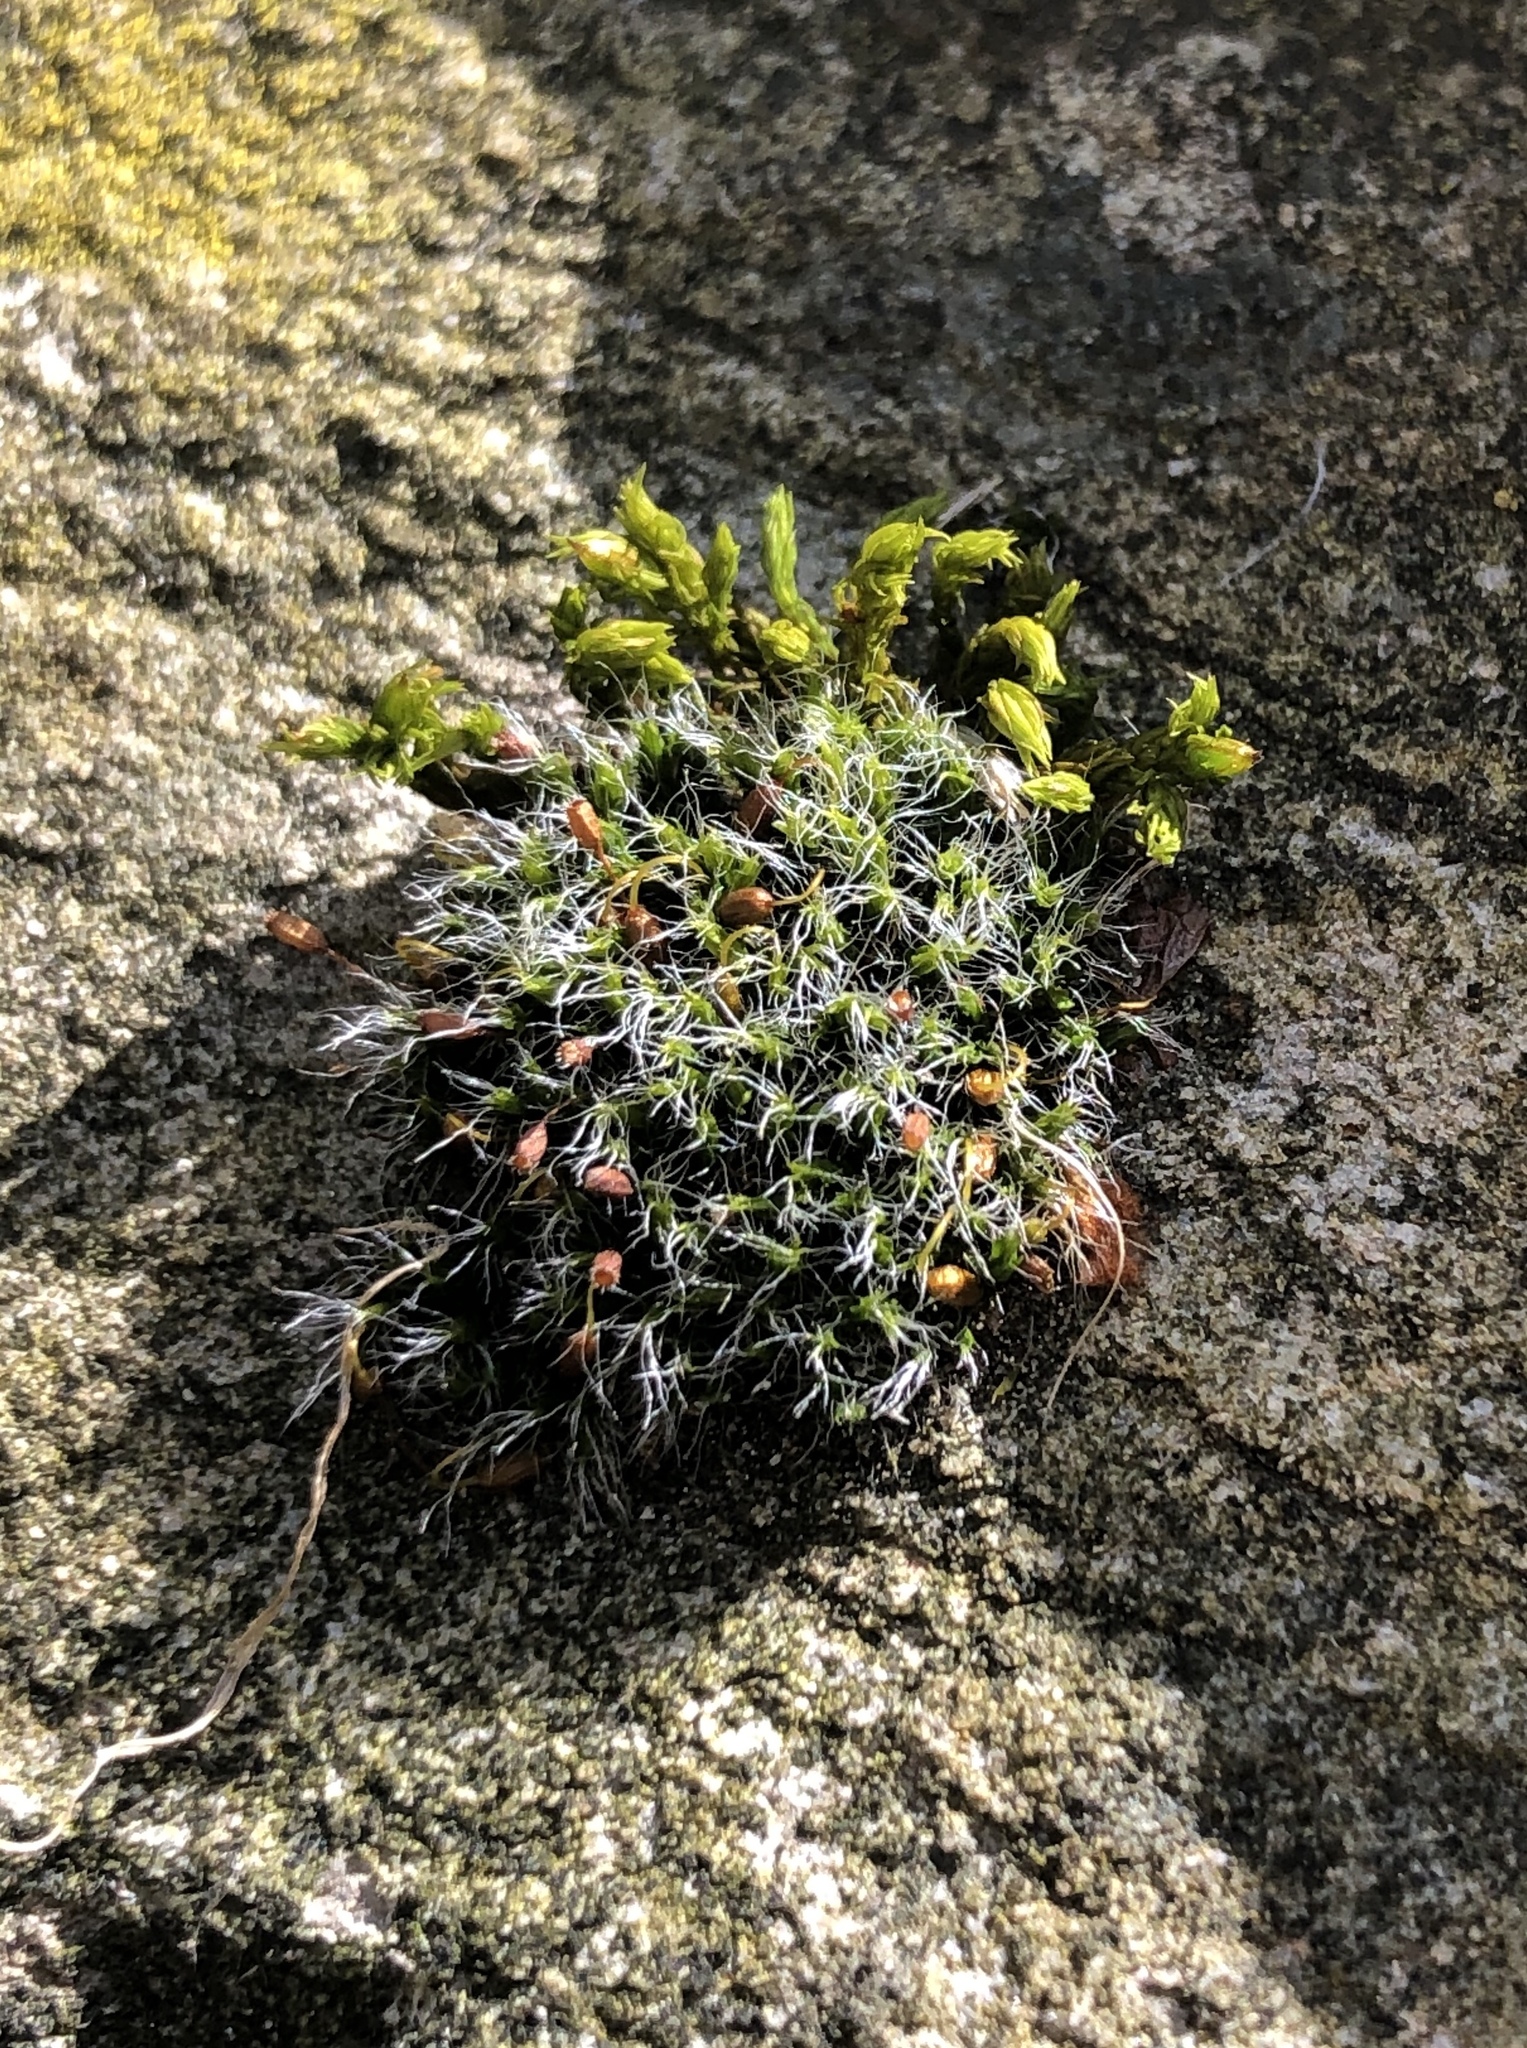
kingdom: Plantae
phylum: Bryophyta
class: Bryopsida
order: Grimmiales
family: Grimmiaceae
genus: Grimmia
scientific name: Grimmia pulvinata
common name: Grey-cushioned grimmia
